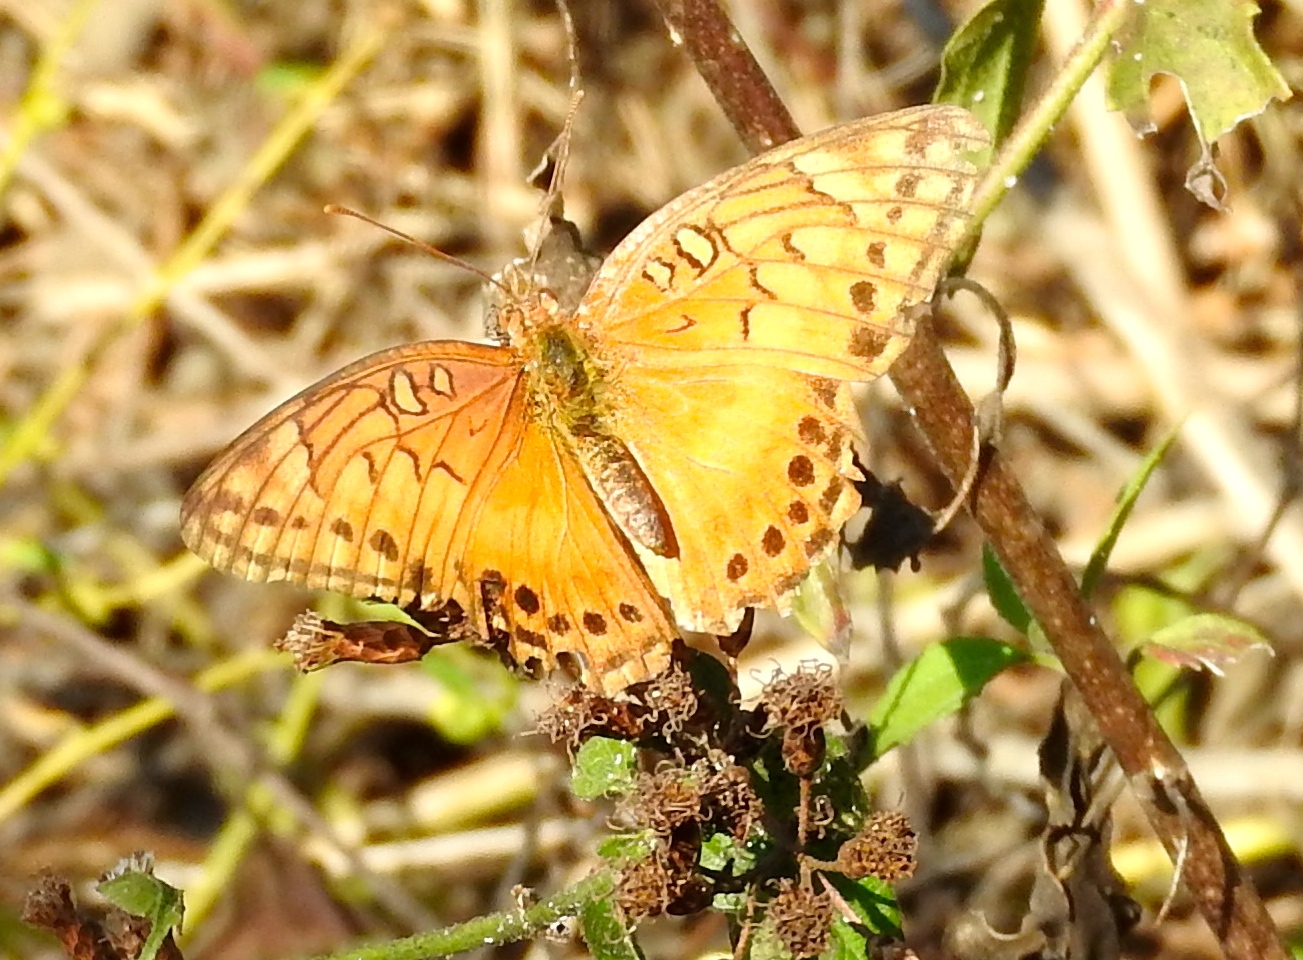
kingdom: Animalia
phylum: Arthropoda
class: Insecta
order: Lepidoptera
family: Nymphalidae
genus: Euptoieta
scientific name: Euptoieta hegesia
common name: Mexican fritillary
